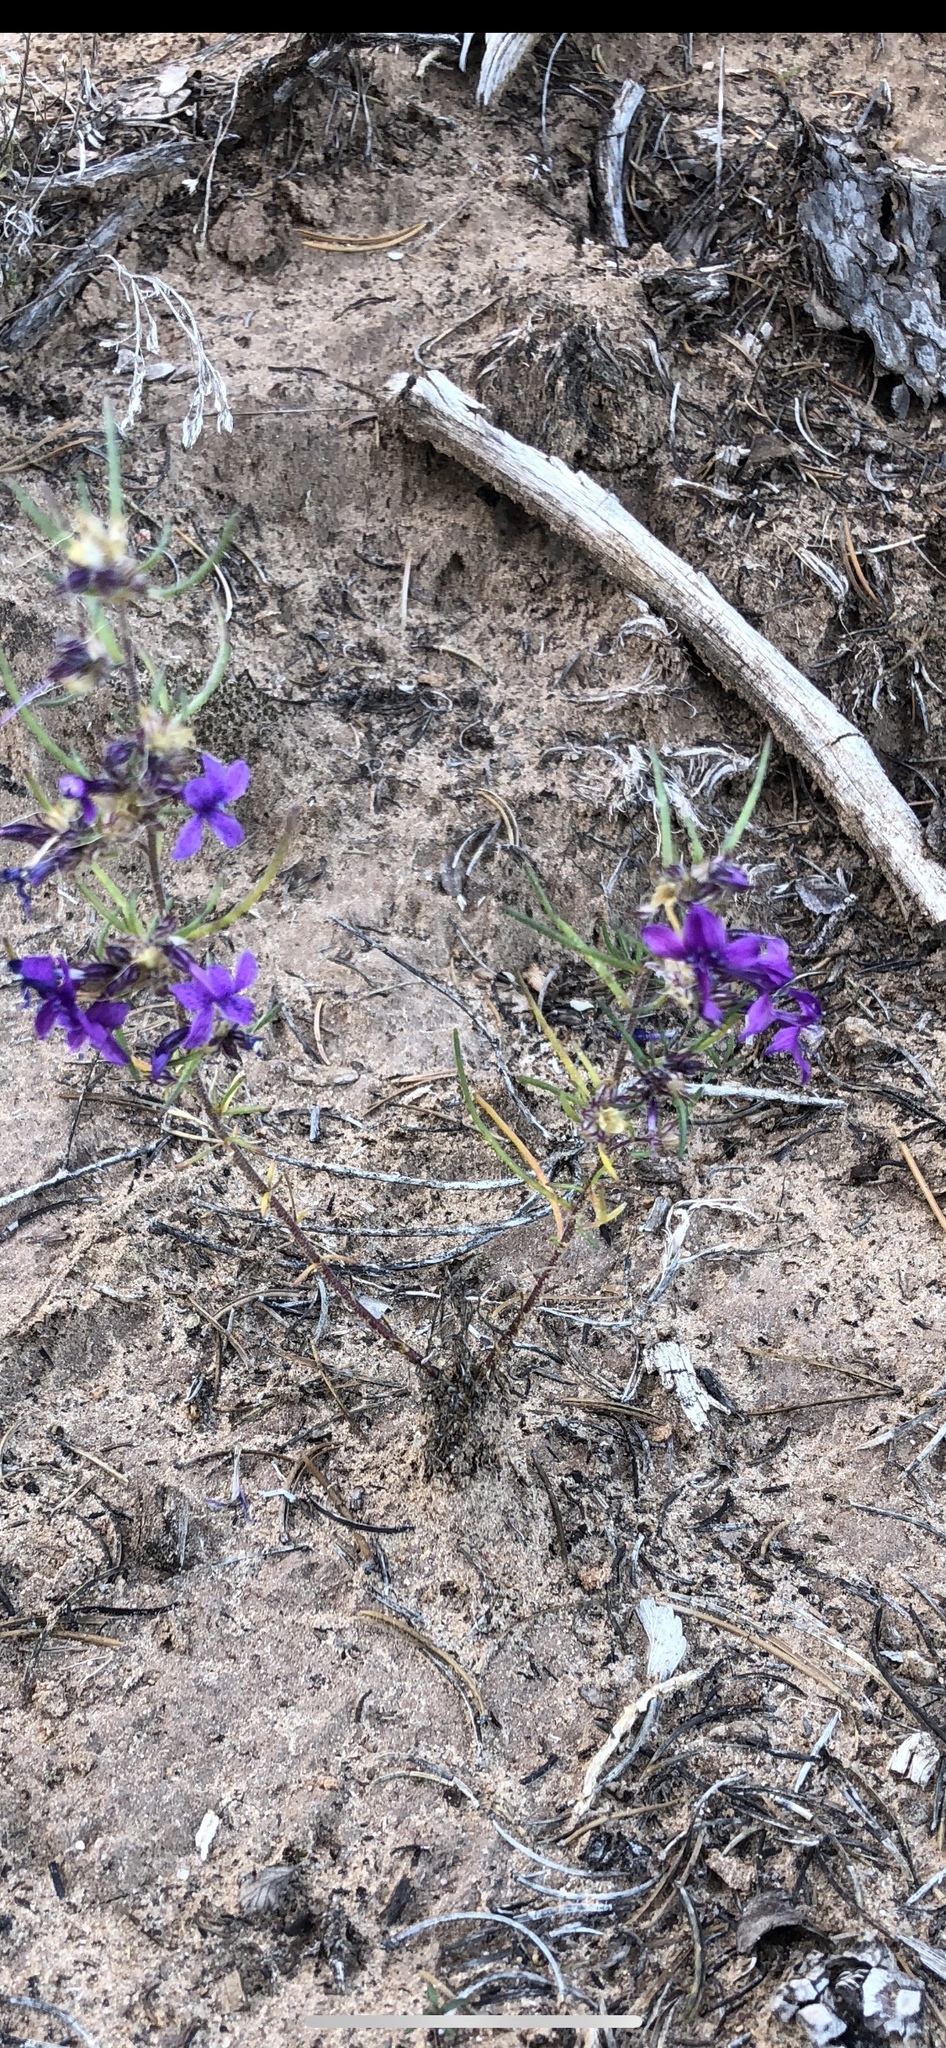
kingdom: Plantae
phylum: Tracheophyta
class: Magnoliopsida
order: Ericales
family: Polemoniaceae
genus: Ipomopsis
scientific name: Ipomopsis multiflora
